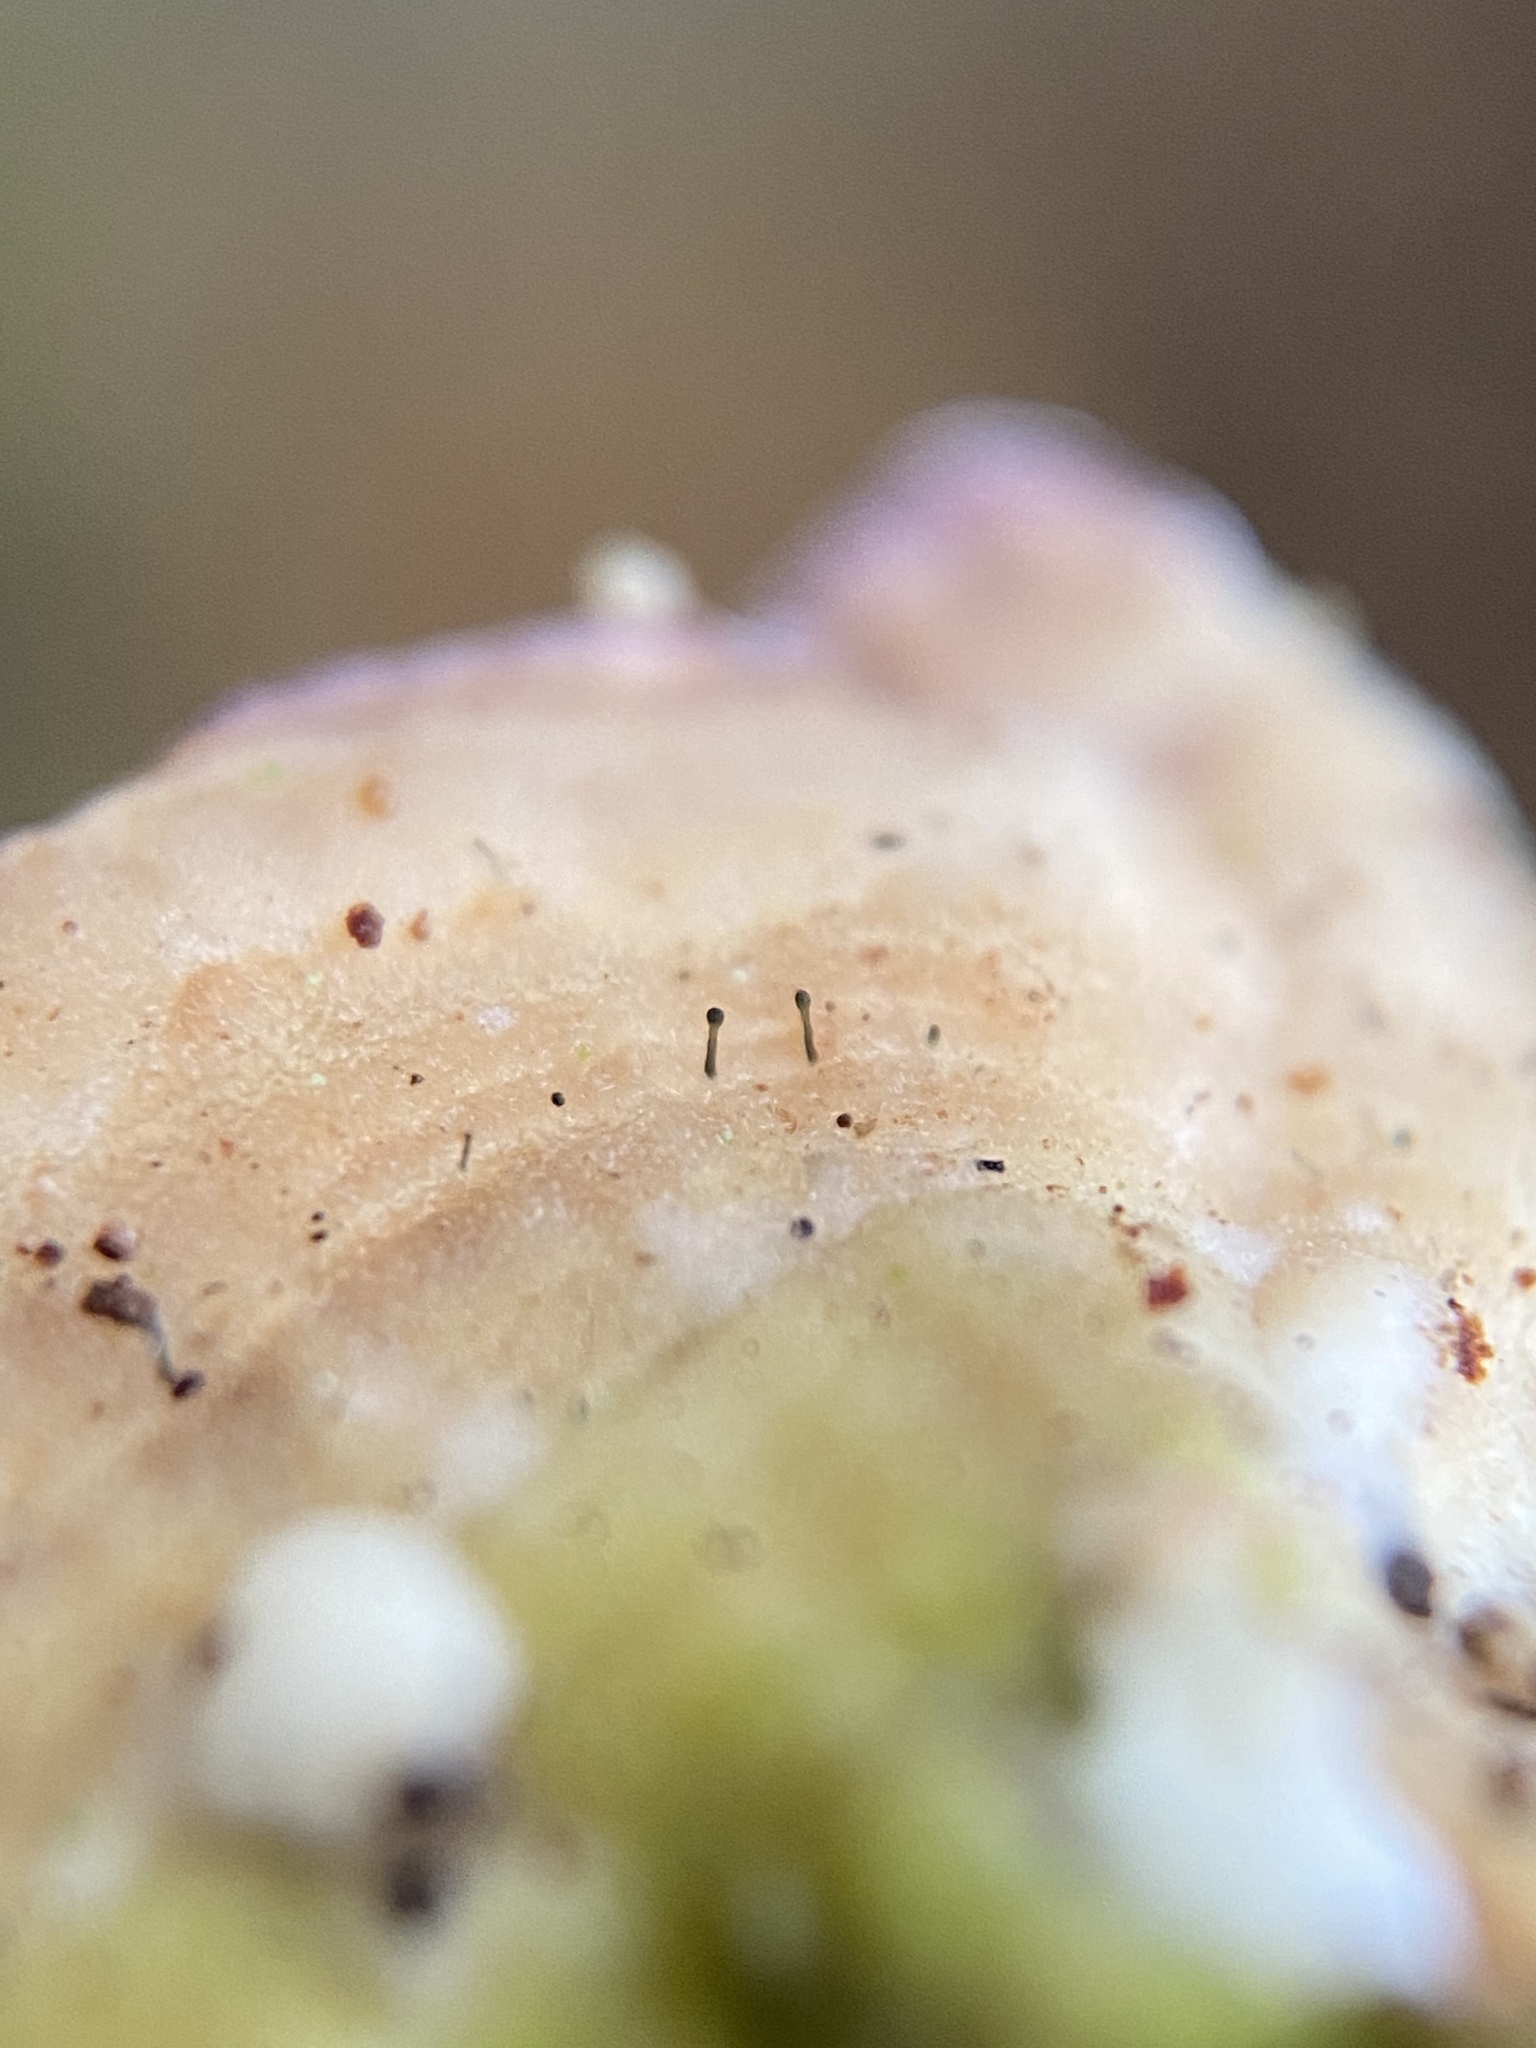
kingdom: Fungi
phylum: Ascomycota
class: Eurotiomycetes
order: Mycocaliciales
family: Mycocaliciaceae
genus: Phaeocalicium
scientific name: Phaeocalicium polyporaeum
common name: Fairy pins
